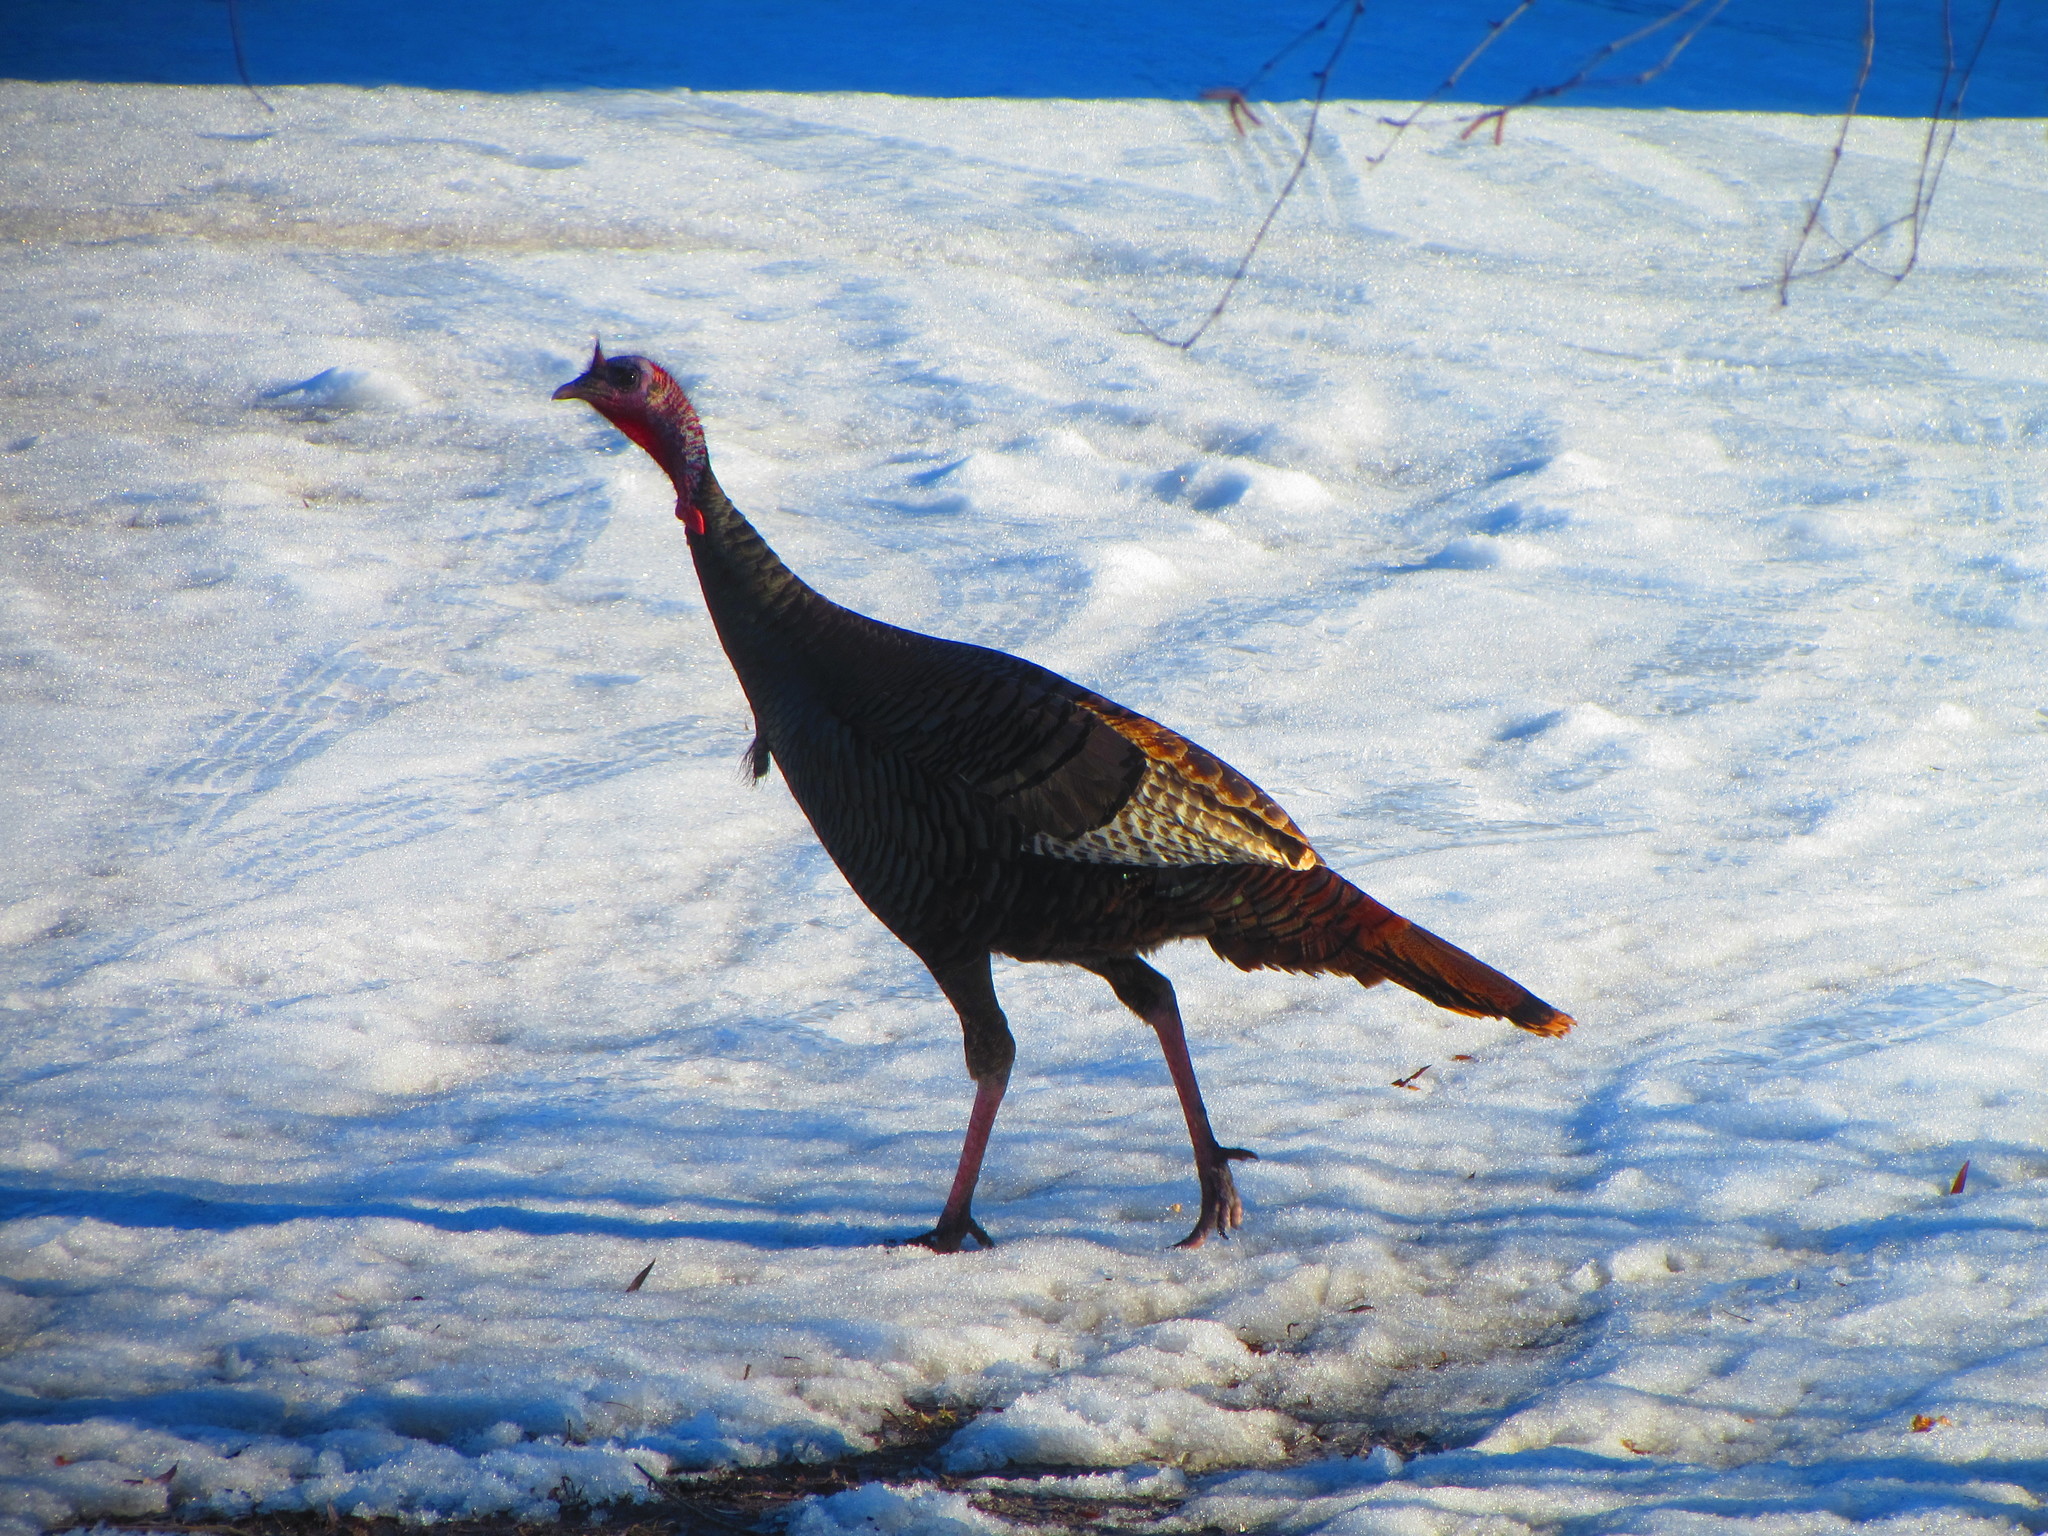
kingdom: Animalia
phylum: Chordata
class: Aves
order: Galliformes
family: Phasianidae
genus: Meleagris
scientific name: Meleagris gallopavo
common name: Wild turkey
